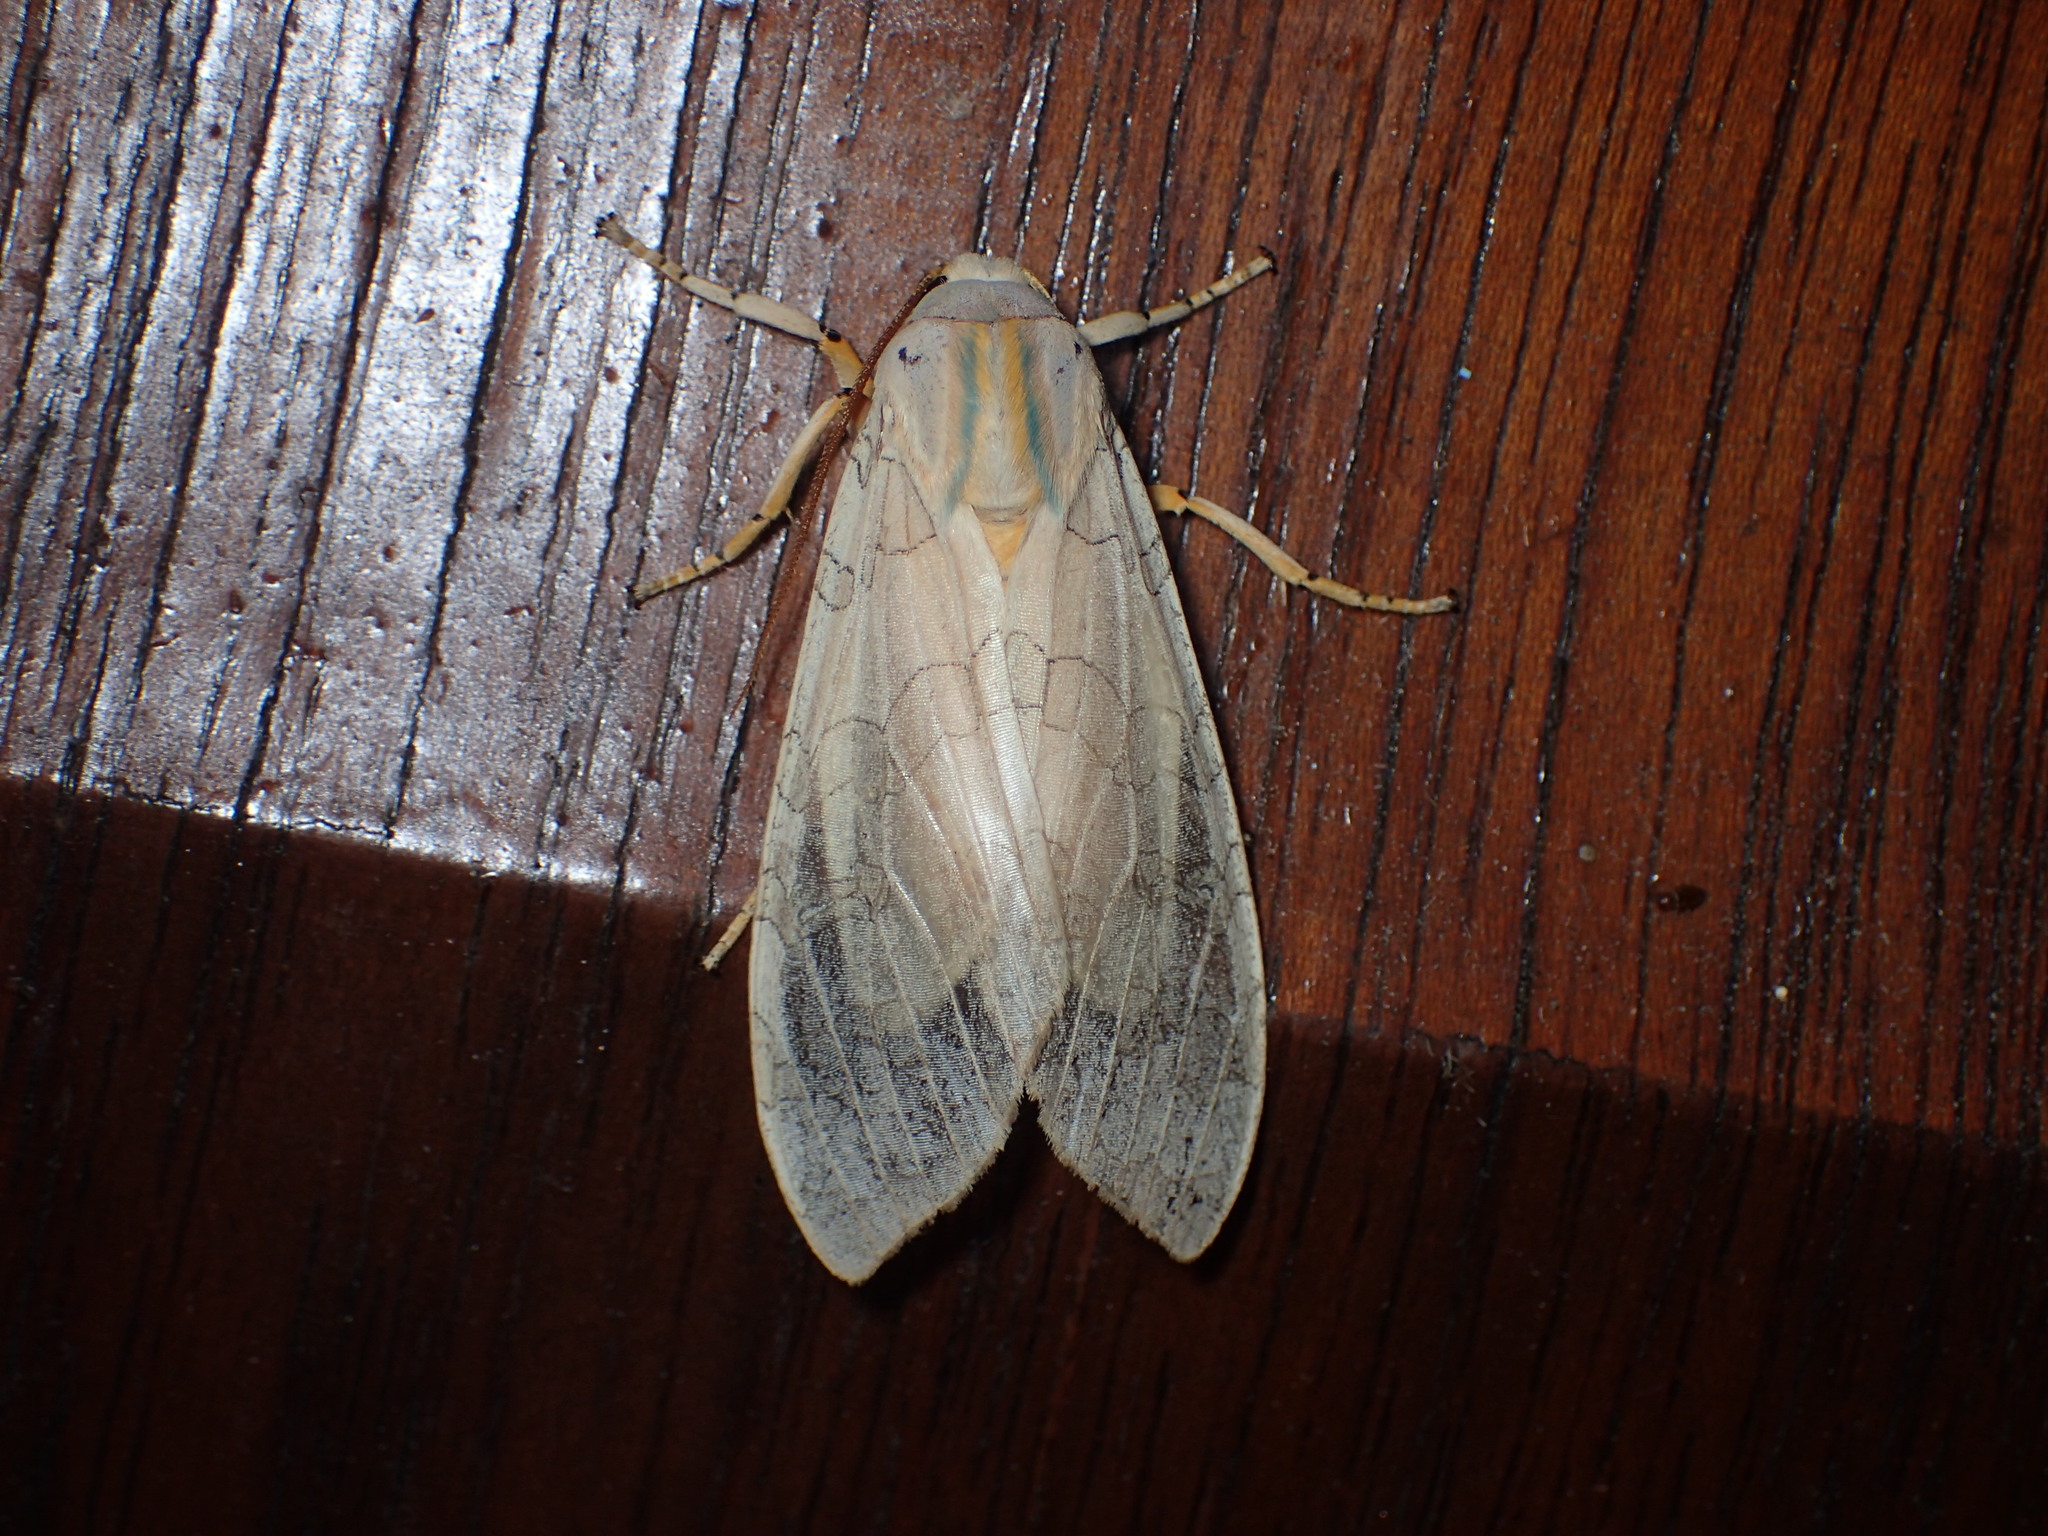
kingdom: Animalia
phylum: Arthropoda
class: Insecta
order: Lepidoptera
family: Erebidae
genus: Halysidota
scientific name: Halysidota
